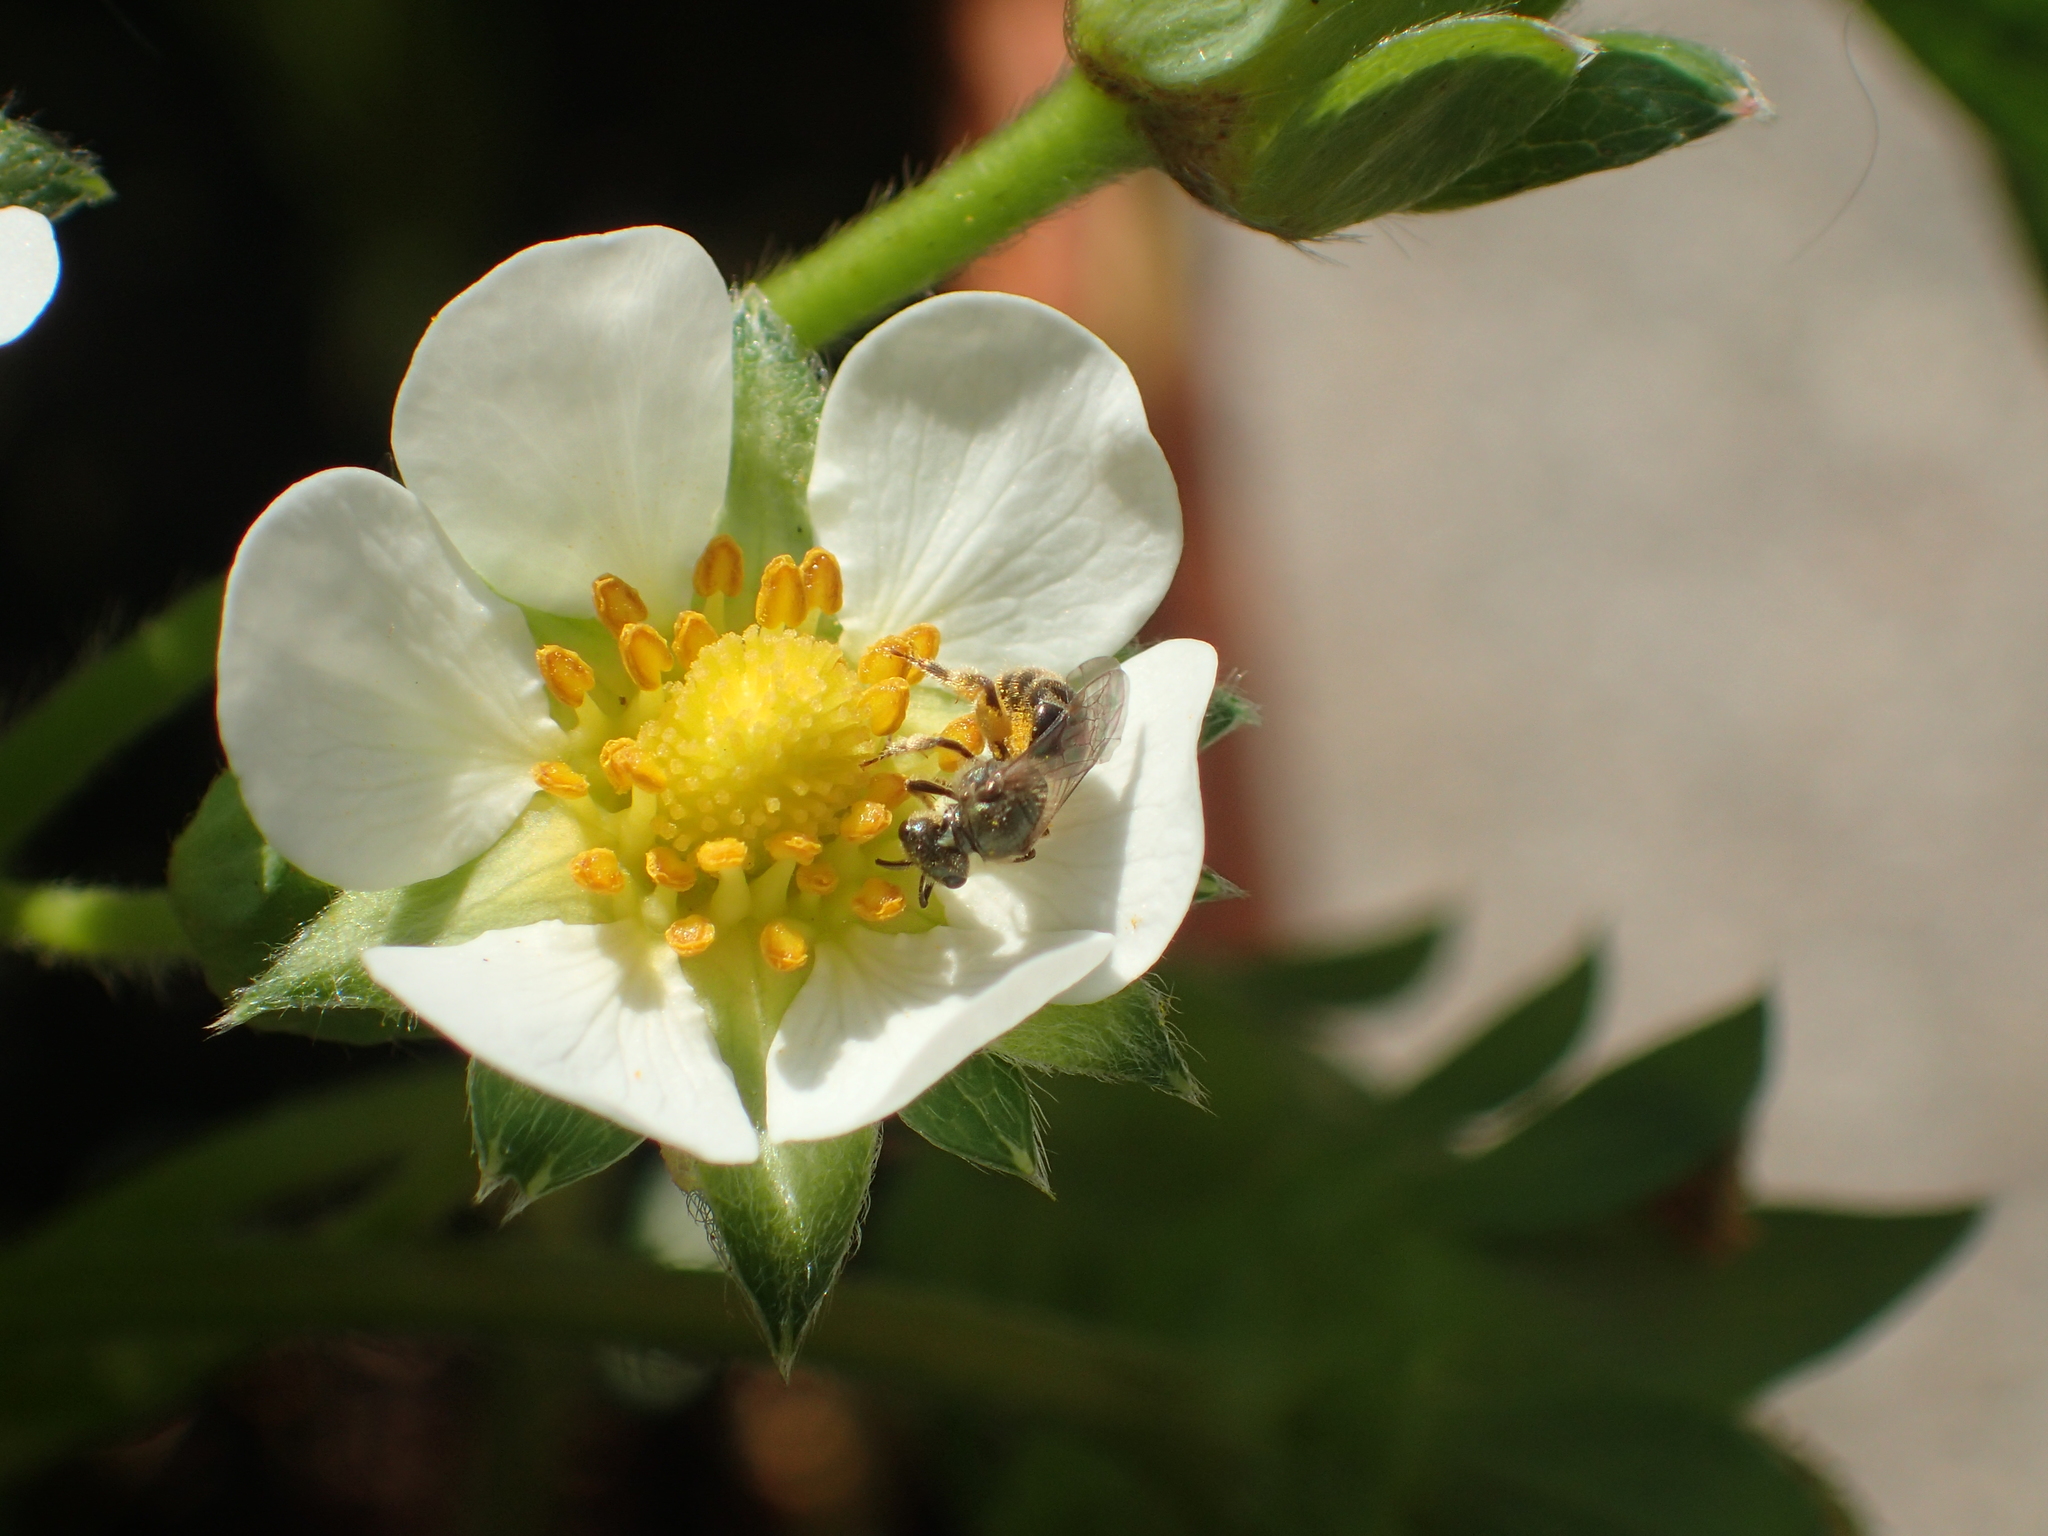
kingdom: Animalia
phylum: Arthropoda
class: Insecta
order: Hymenoptera
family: Halictidae
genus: Dialictus
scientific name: Dialictus
